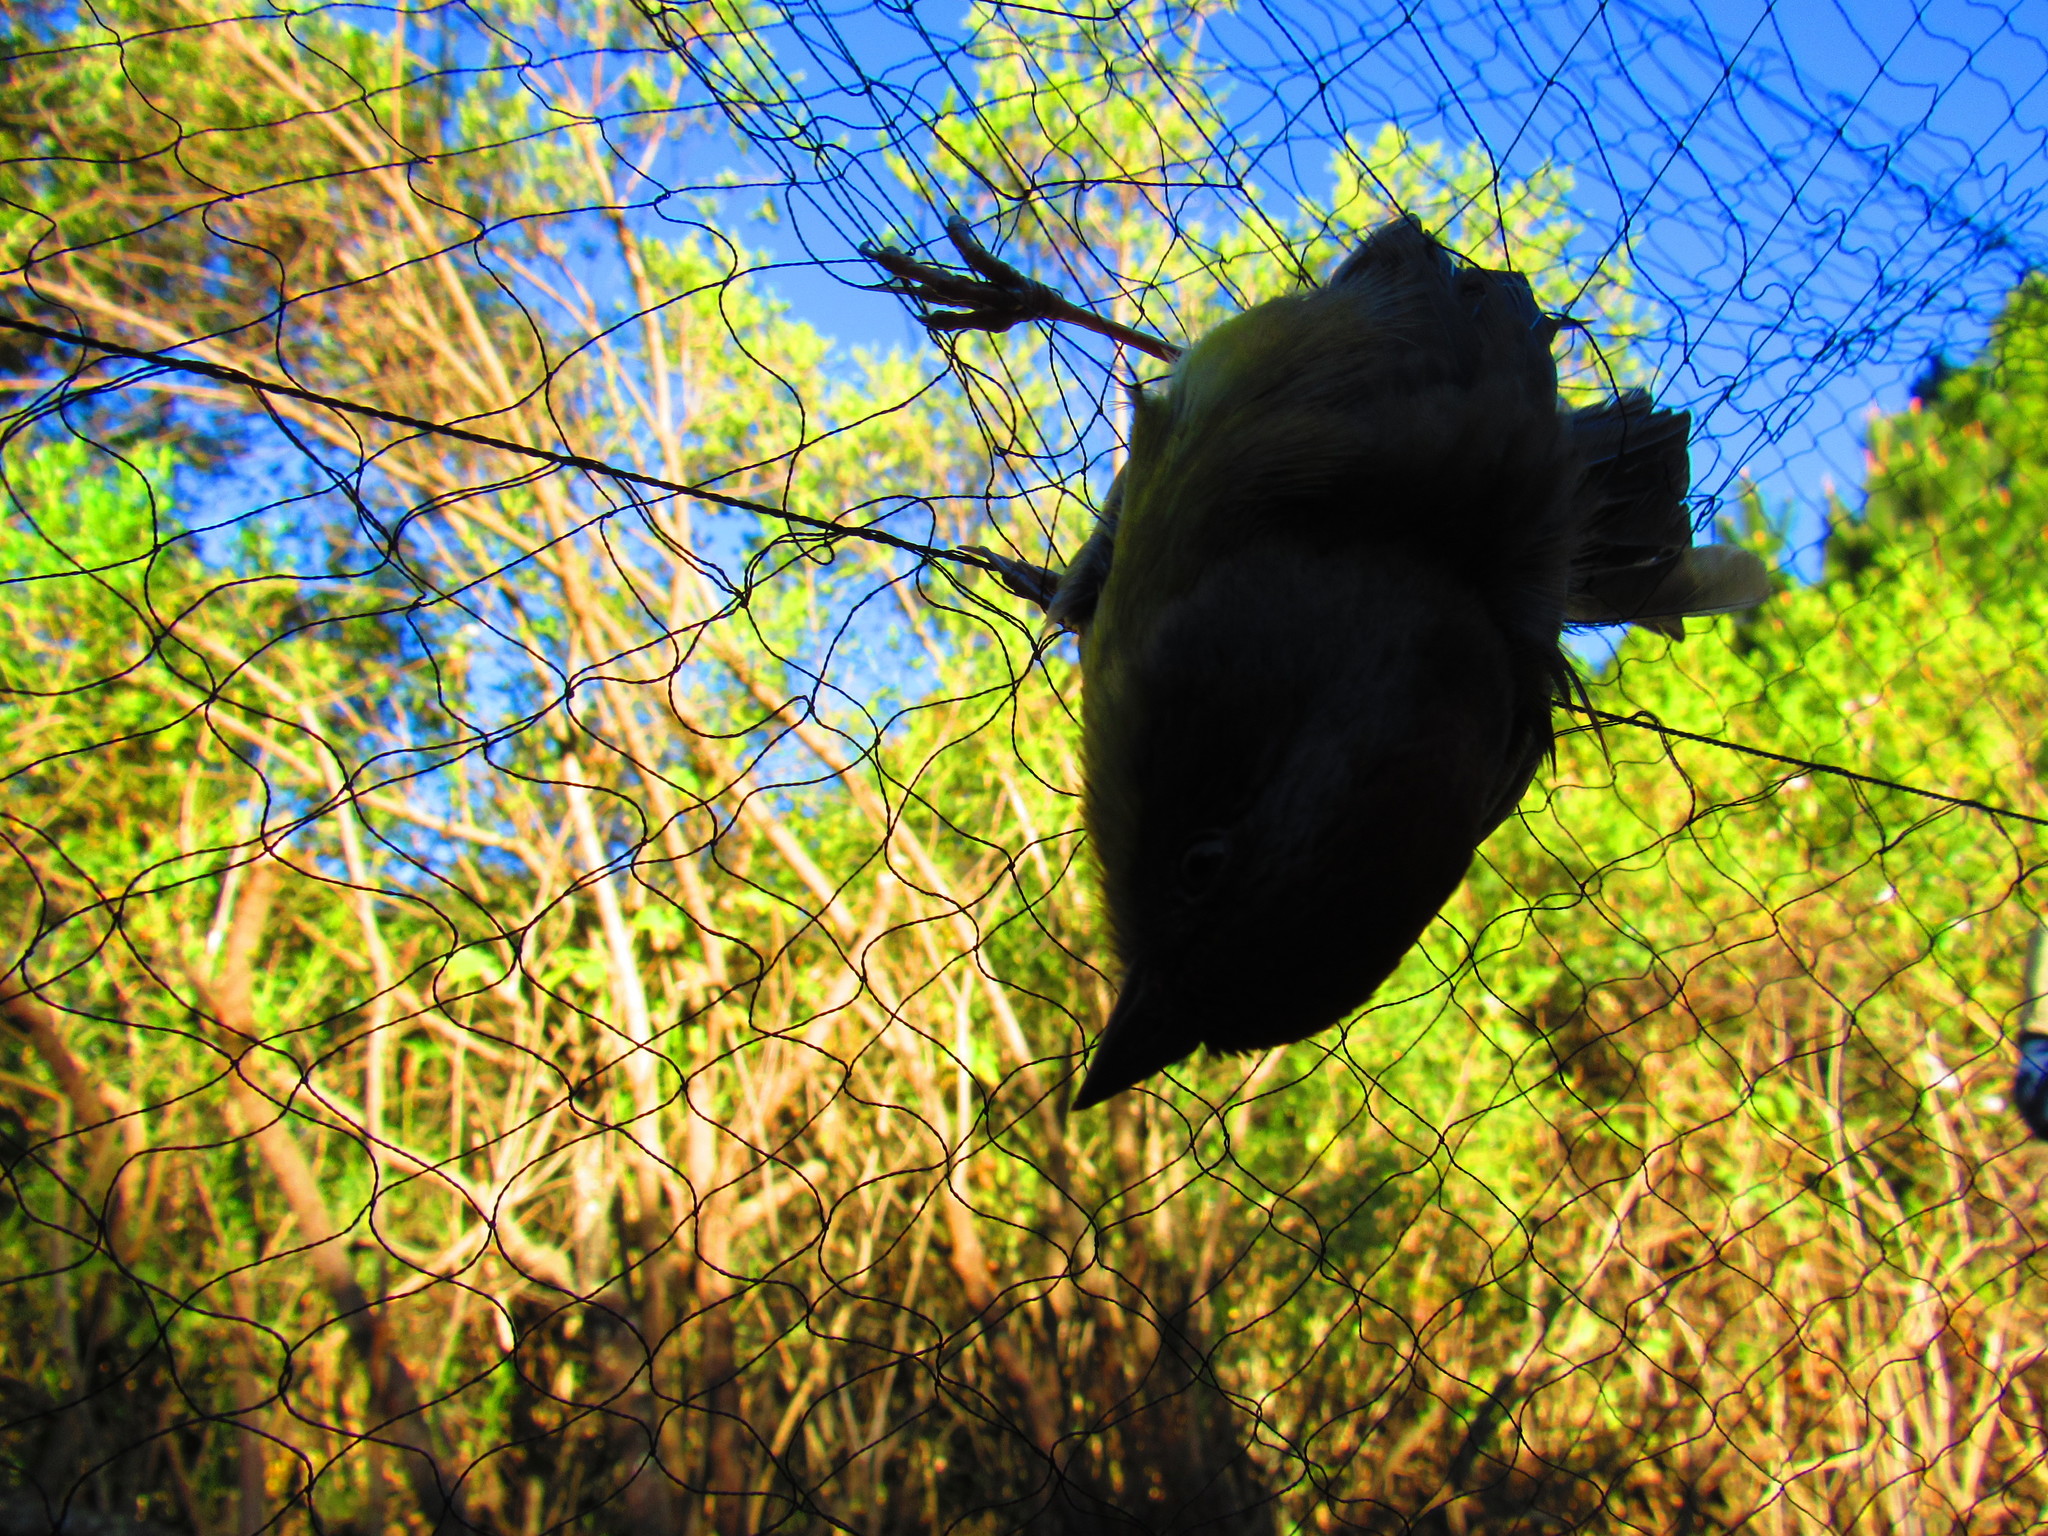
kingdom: Animalia
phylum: Chordata
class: Aves
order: Passeriformes
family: Passerellidae
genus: Atlapetes
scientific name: Atlapetes pileatus
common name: Rufous-capped brush-finch
